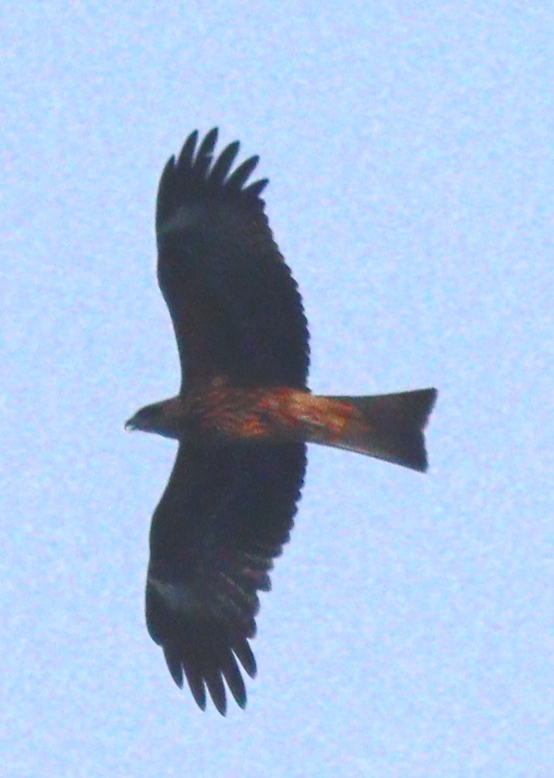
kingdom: Animalia
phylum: Chordata
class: Aves
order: Accipitriformes
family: Accipitridae
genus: Milvus
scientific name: Milvus migrans
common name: Black kite
